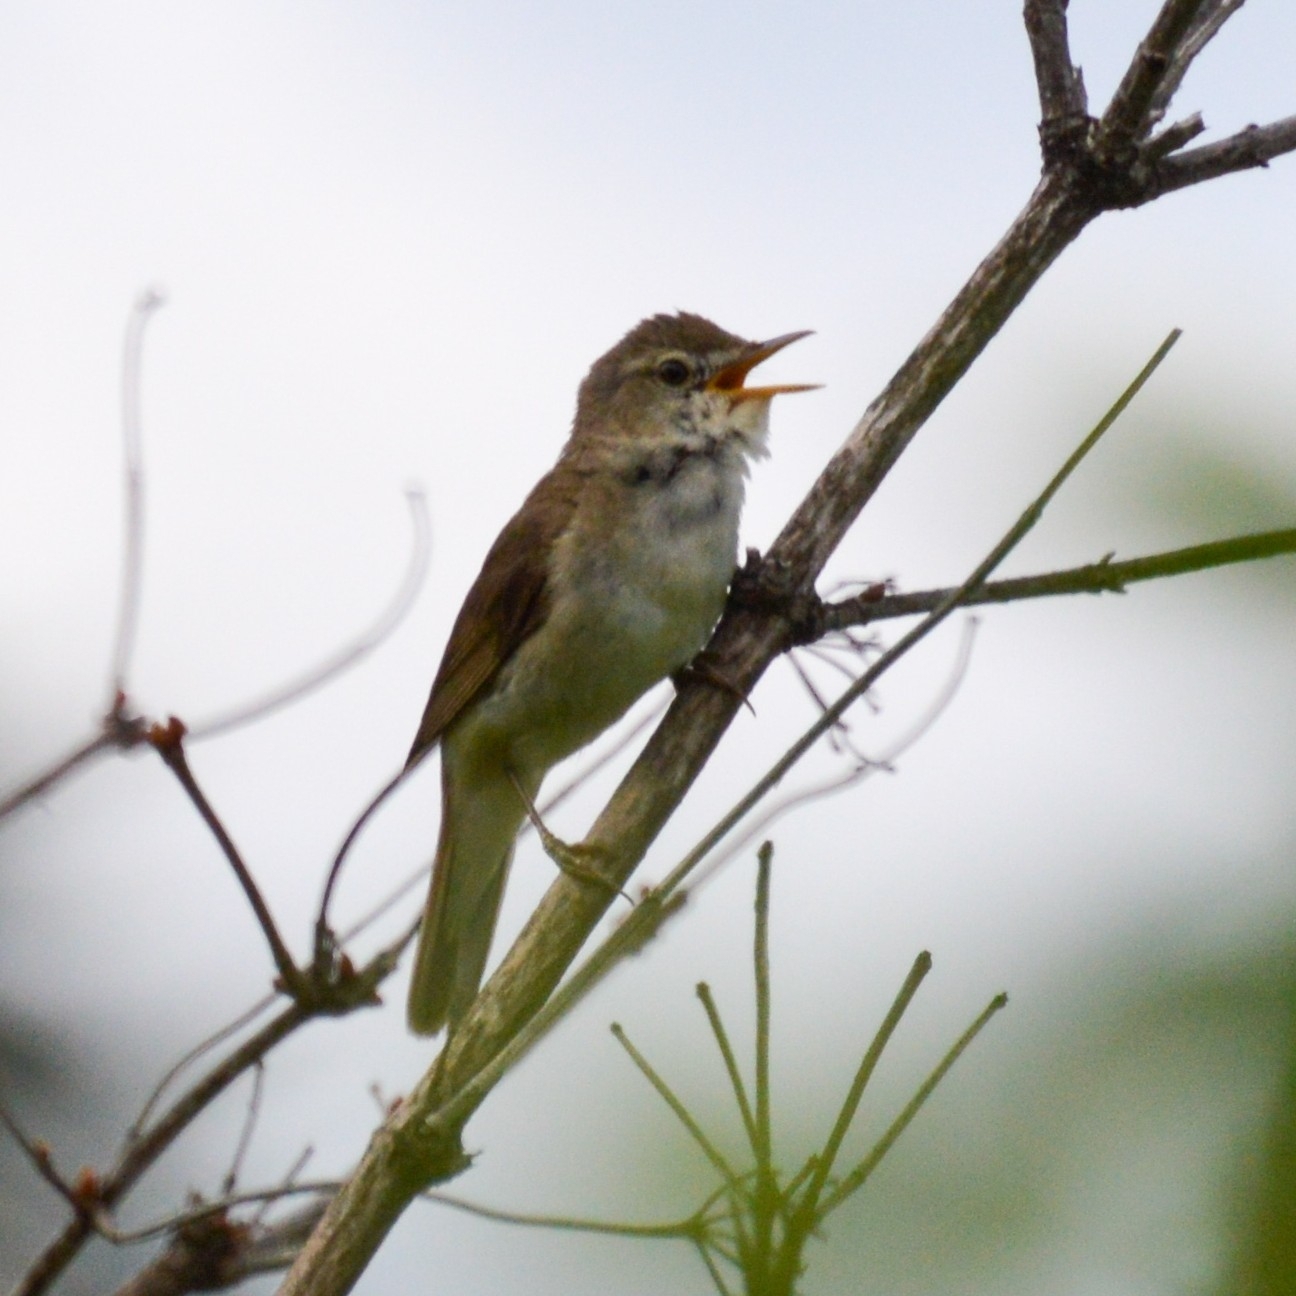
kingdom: Animalia
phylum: Chordata
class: Aves
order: Passeriformes
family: Acrocephalidae
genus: Acrocephalus
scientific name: Acrocephalus dumetorum
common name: Blyth's reed warbler
